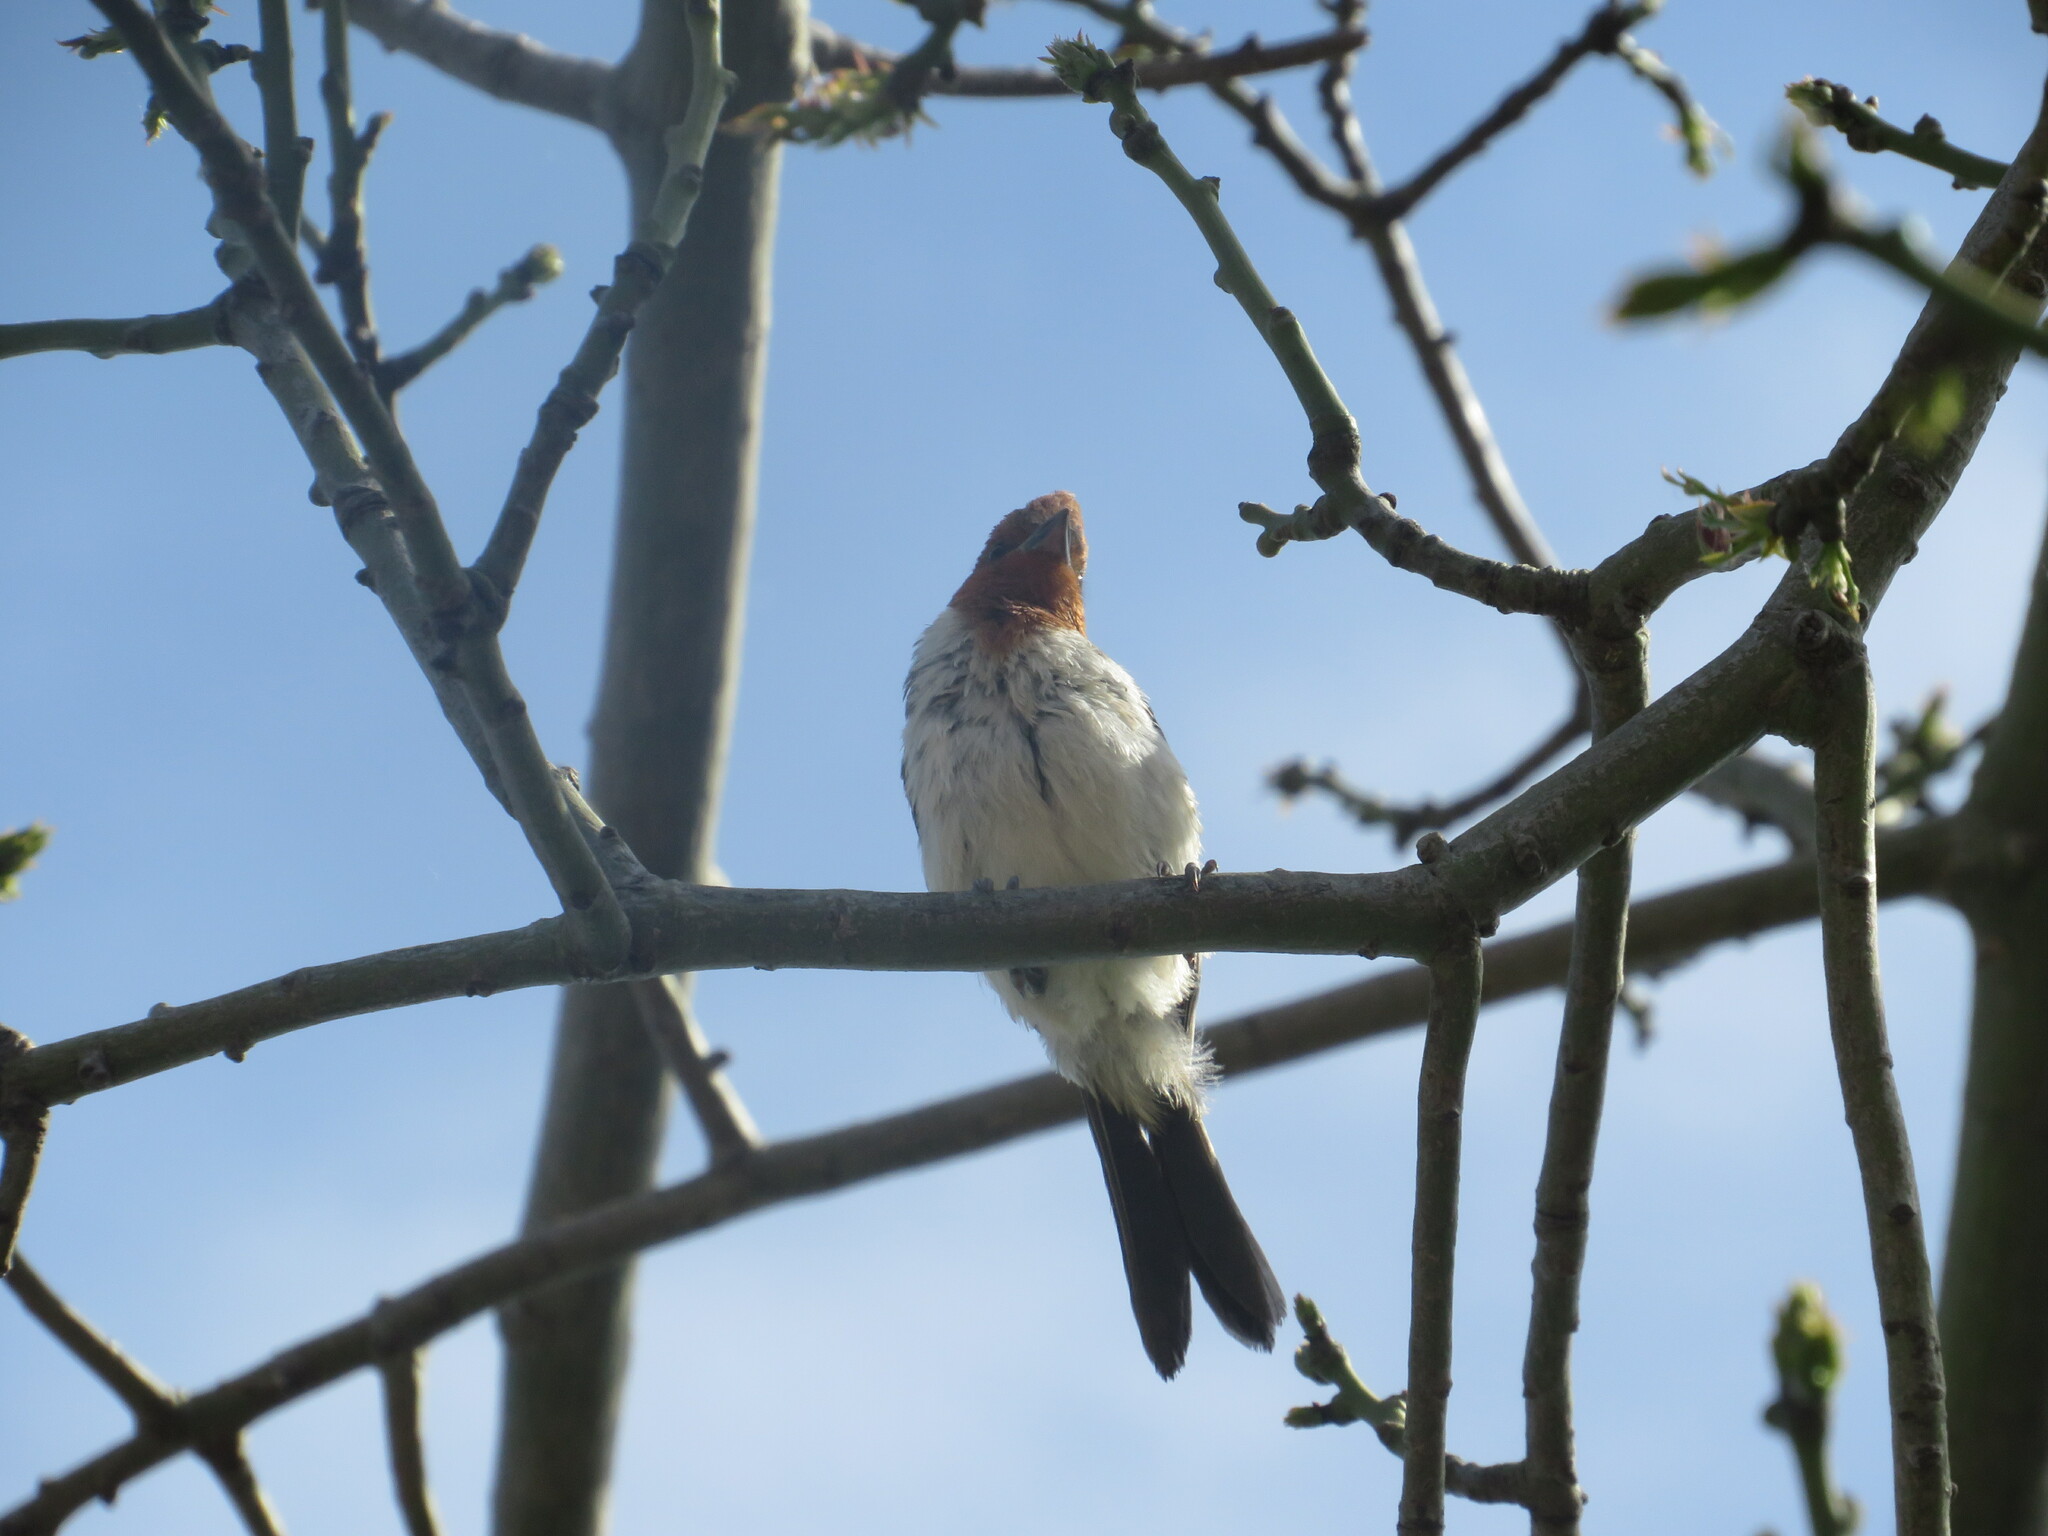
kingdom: Animalia
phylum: Chordata
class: Aves
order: Passeriformes
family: Thraupidae
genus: Paroaria
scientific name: Paroaria coronata
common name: Red-crested cardinal
